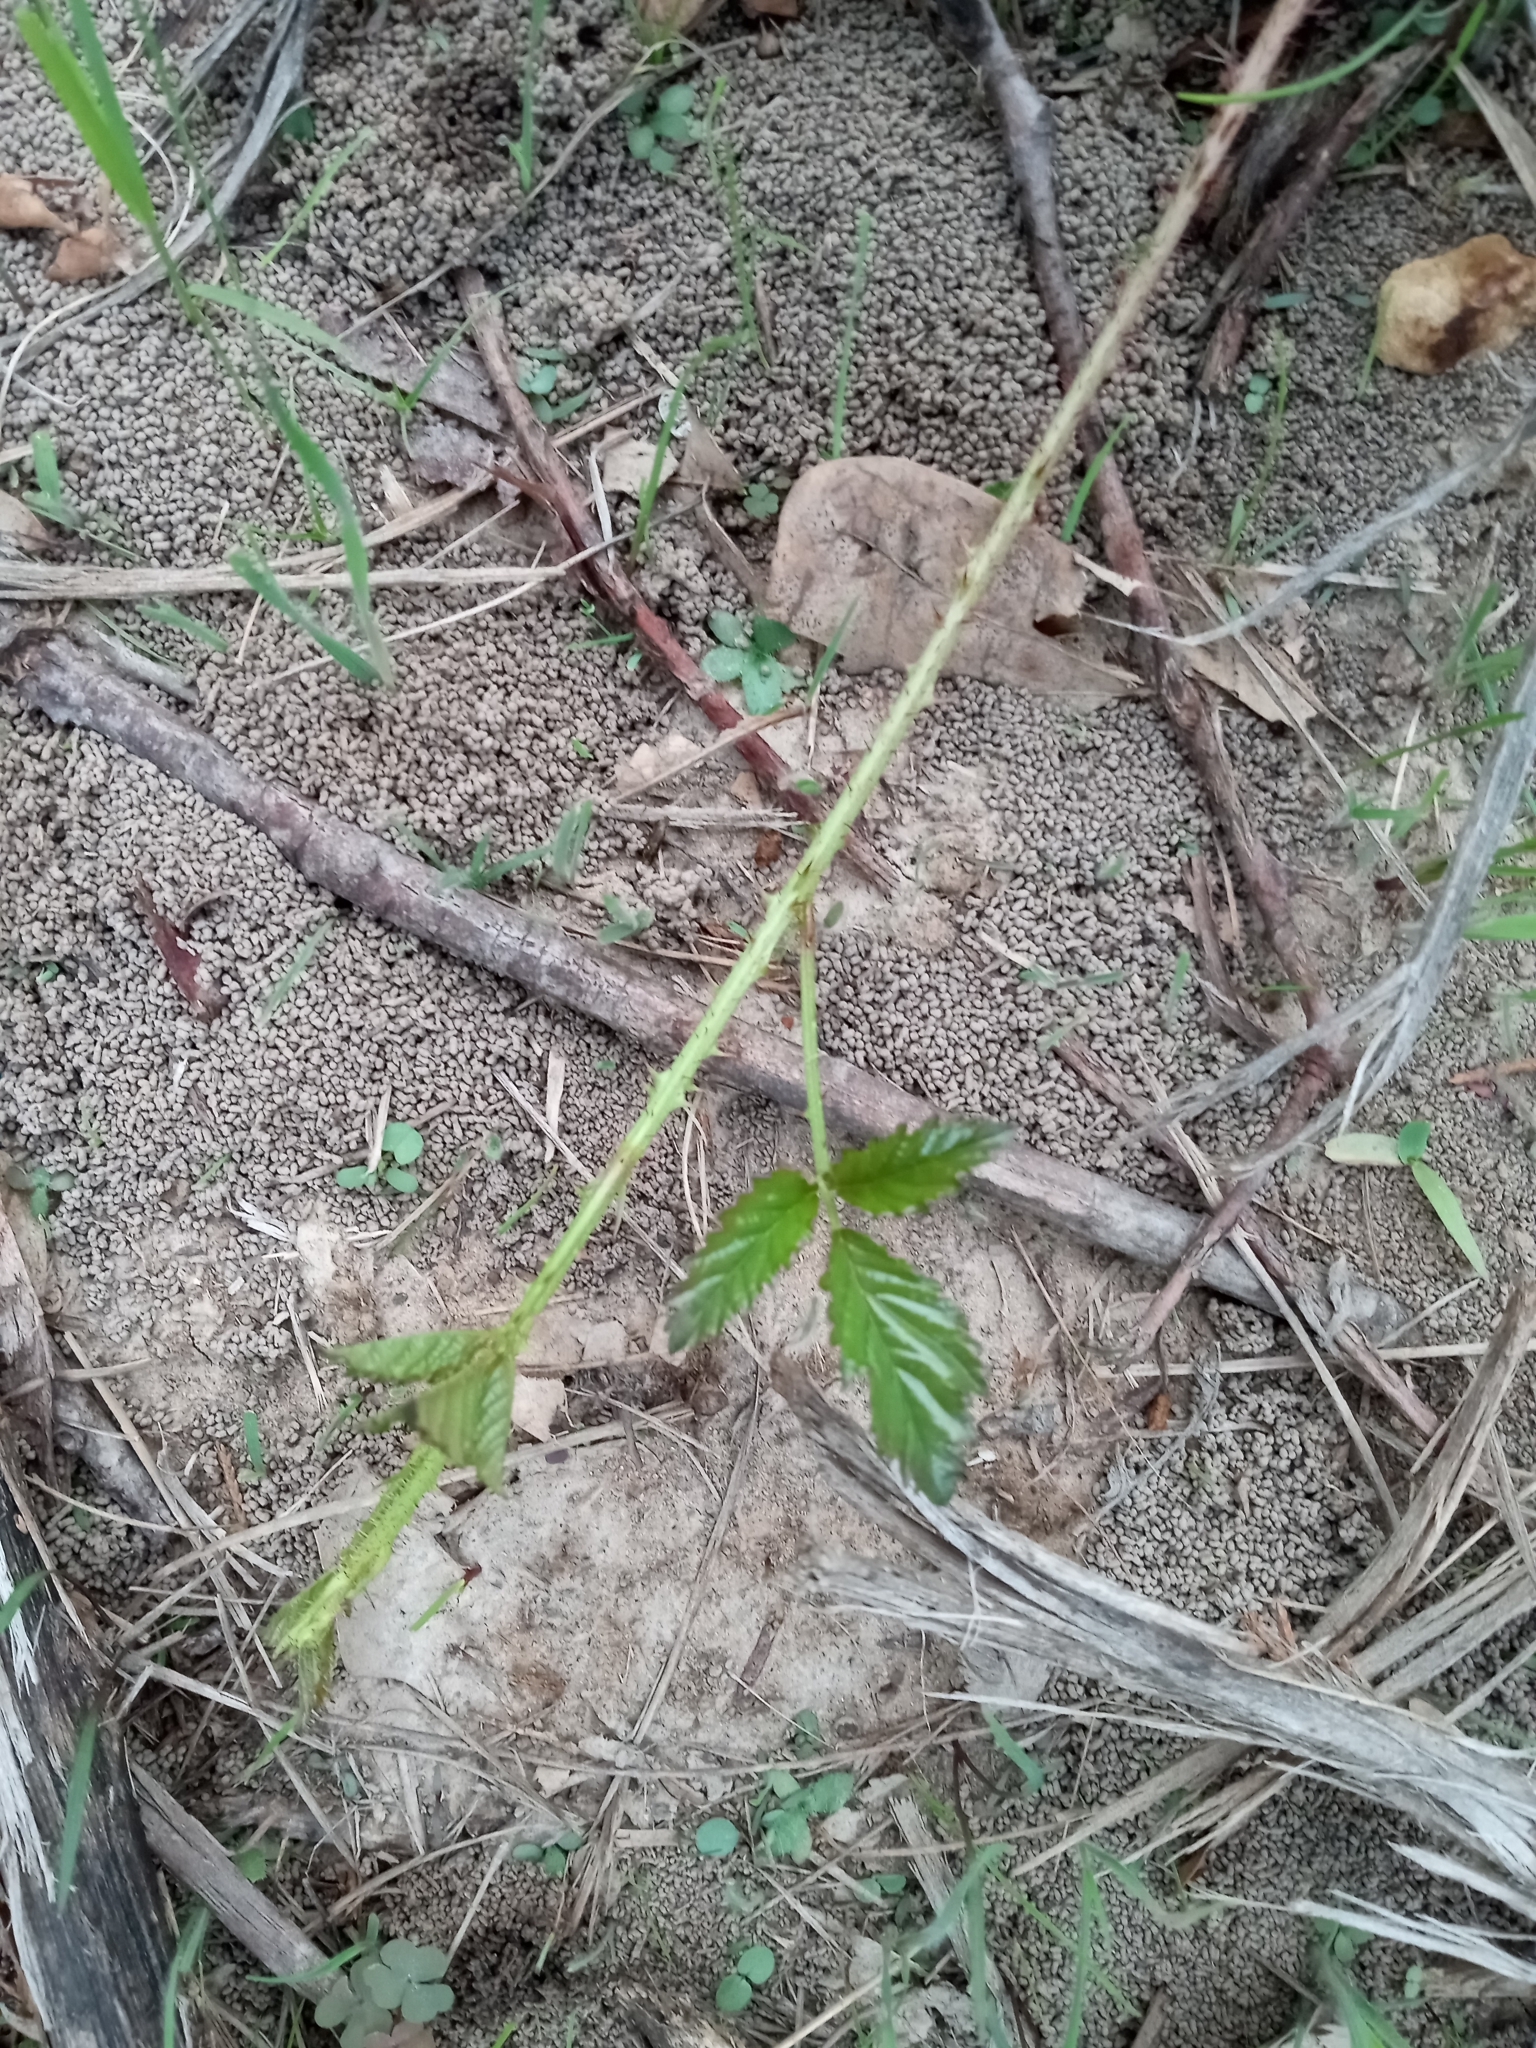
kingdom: Plantae
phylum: Tracheophyta
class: Magnoliopsida
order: Rosales
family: Rosaceae
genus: Rubus
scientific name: Rubus trivialis
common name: Southern dewberry
